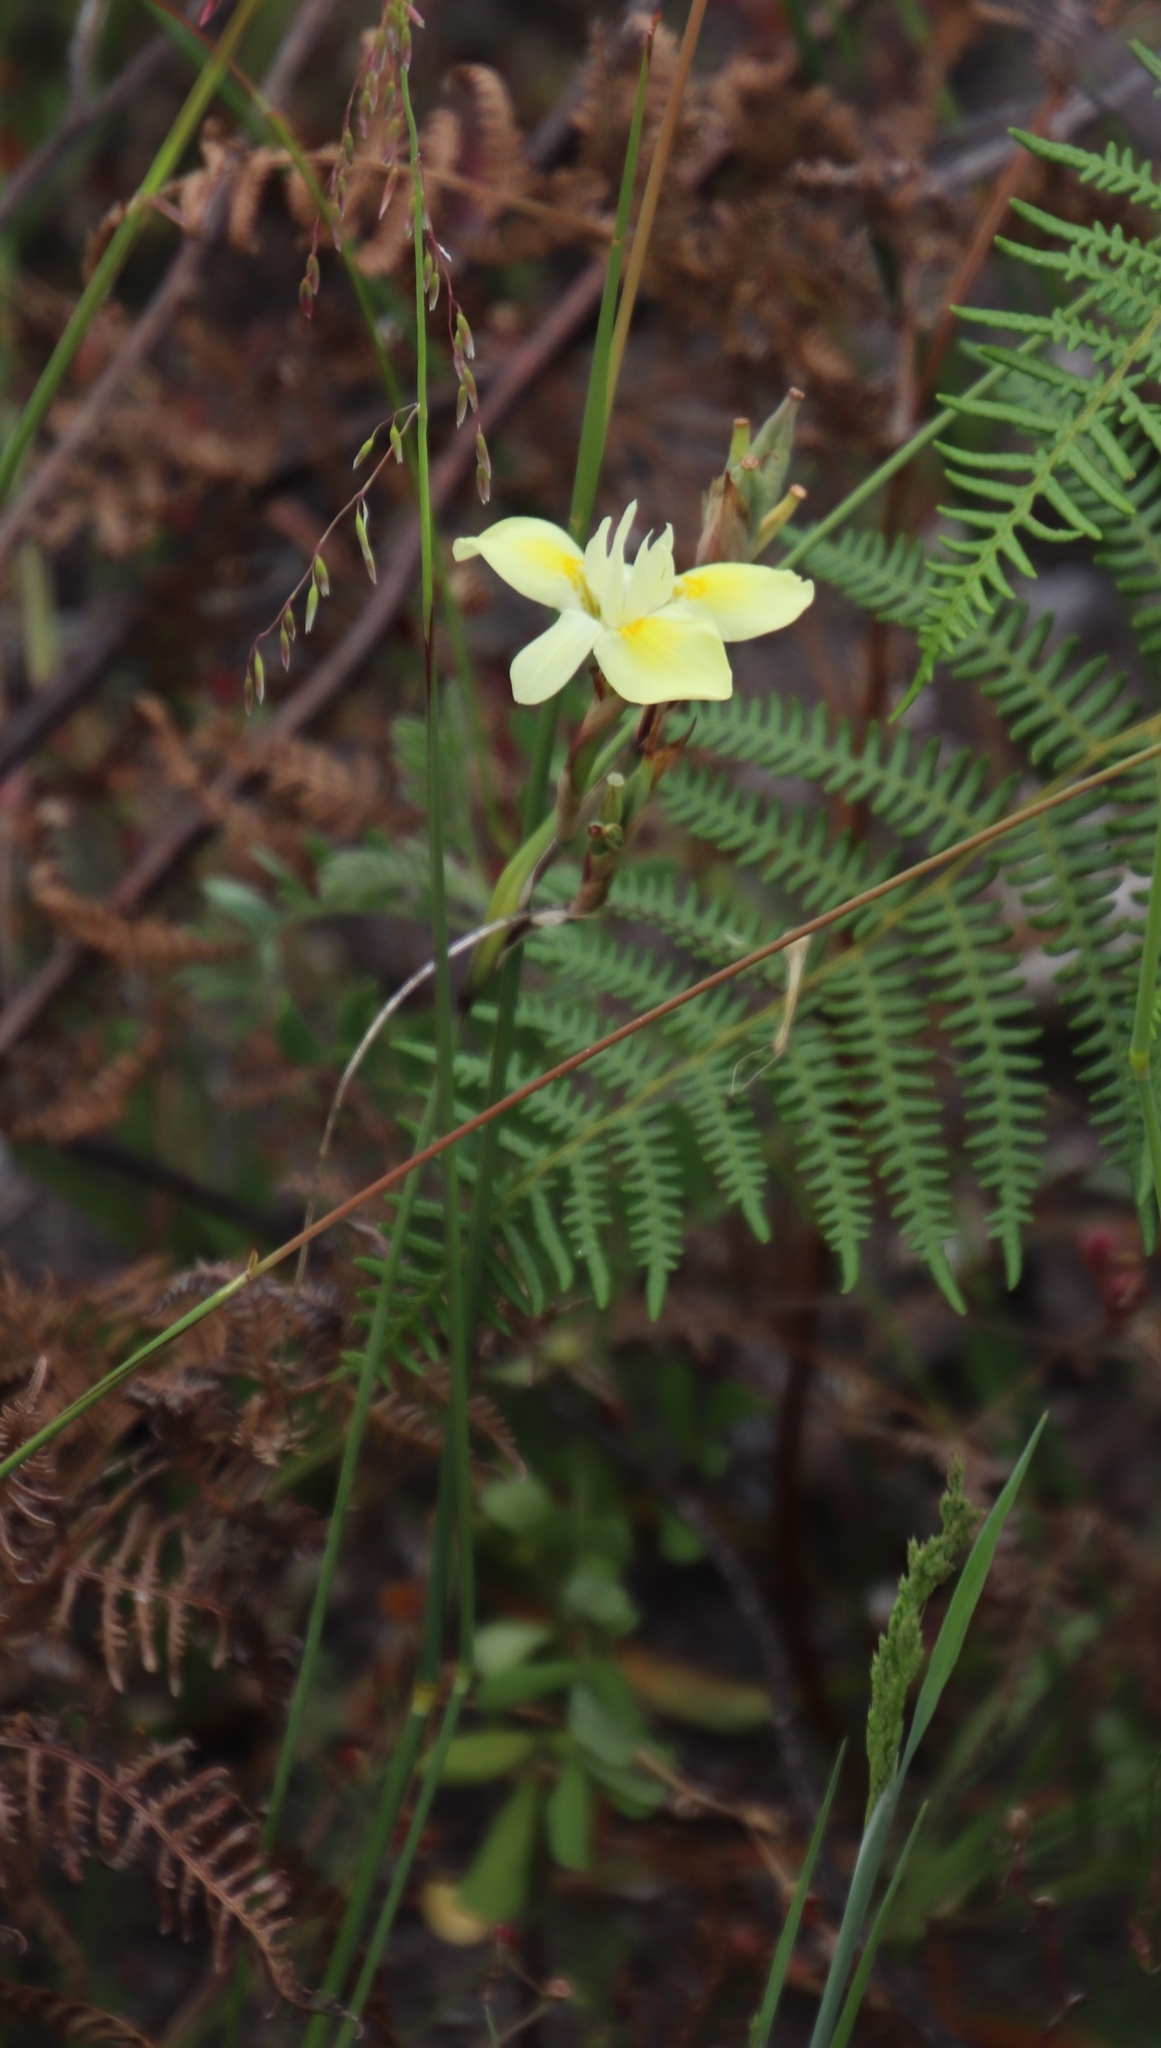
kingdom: Plantae
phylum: Tracheophyta
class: Liliopsida
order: Asparagales
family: Iridaceae
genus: Moraea
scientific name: Moraea fugax
